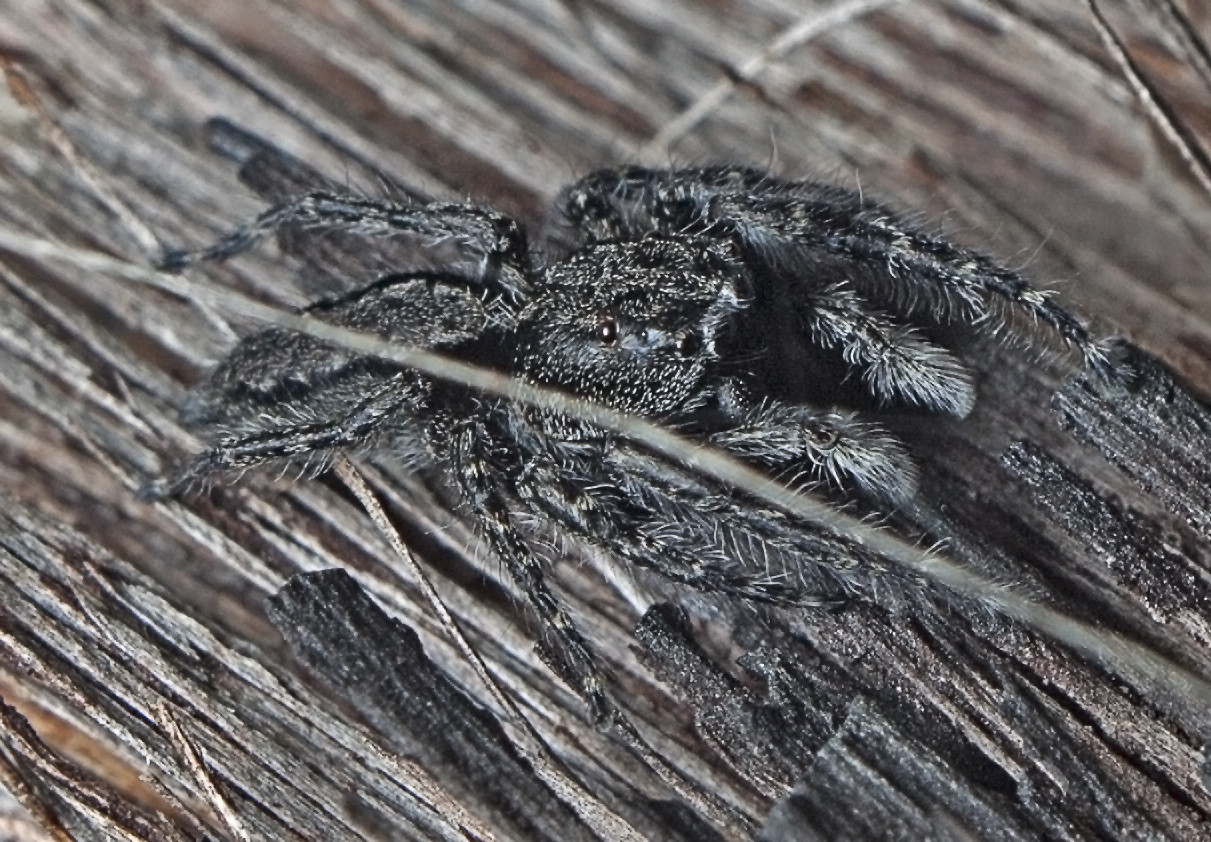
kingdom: Animalia
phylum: Arthropoda
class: Arachnida
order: Araneae
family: Salticidae
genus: Clynotis
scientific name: Clynotis severus
